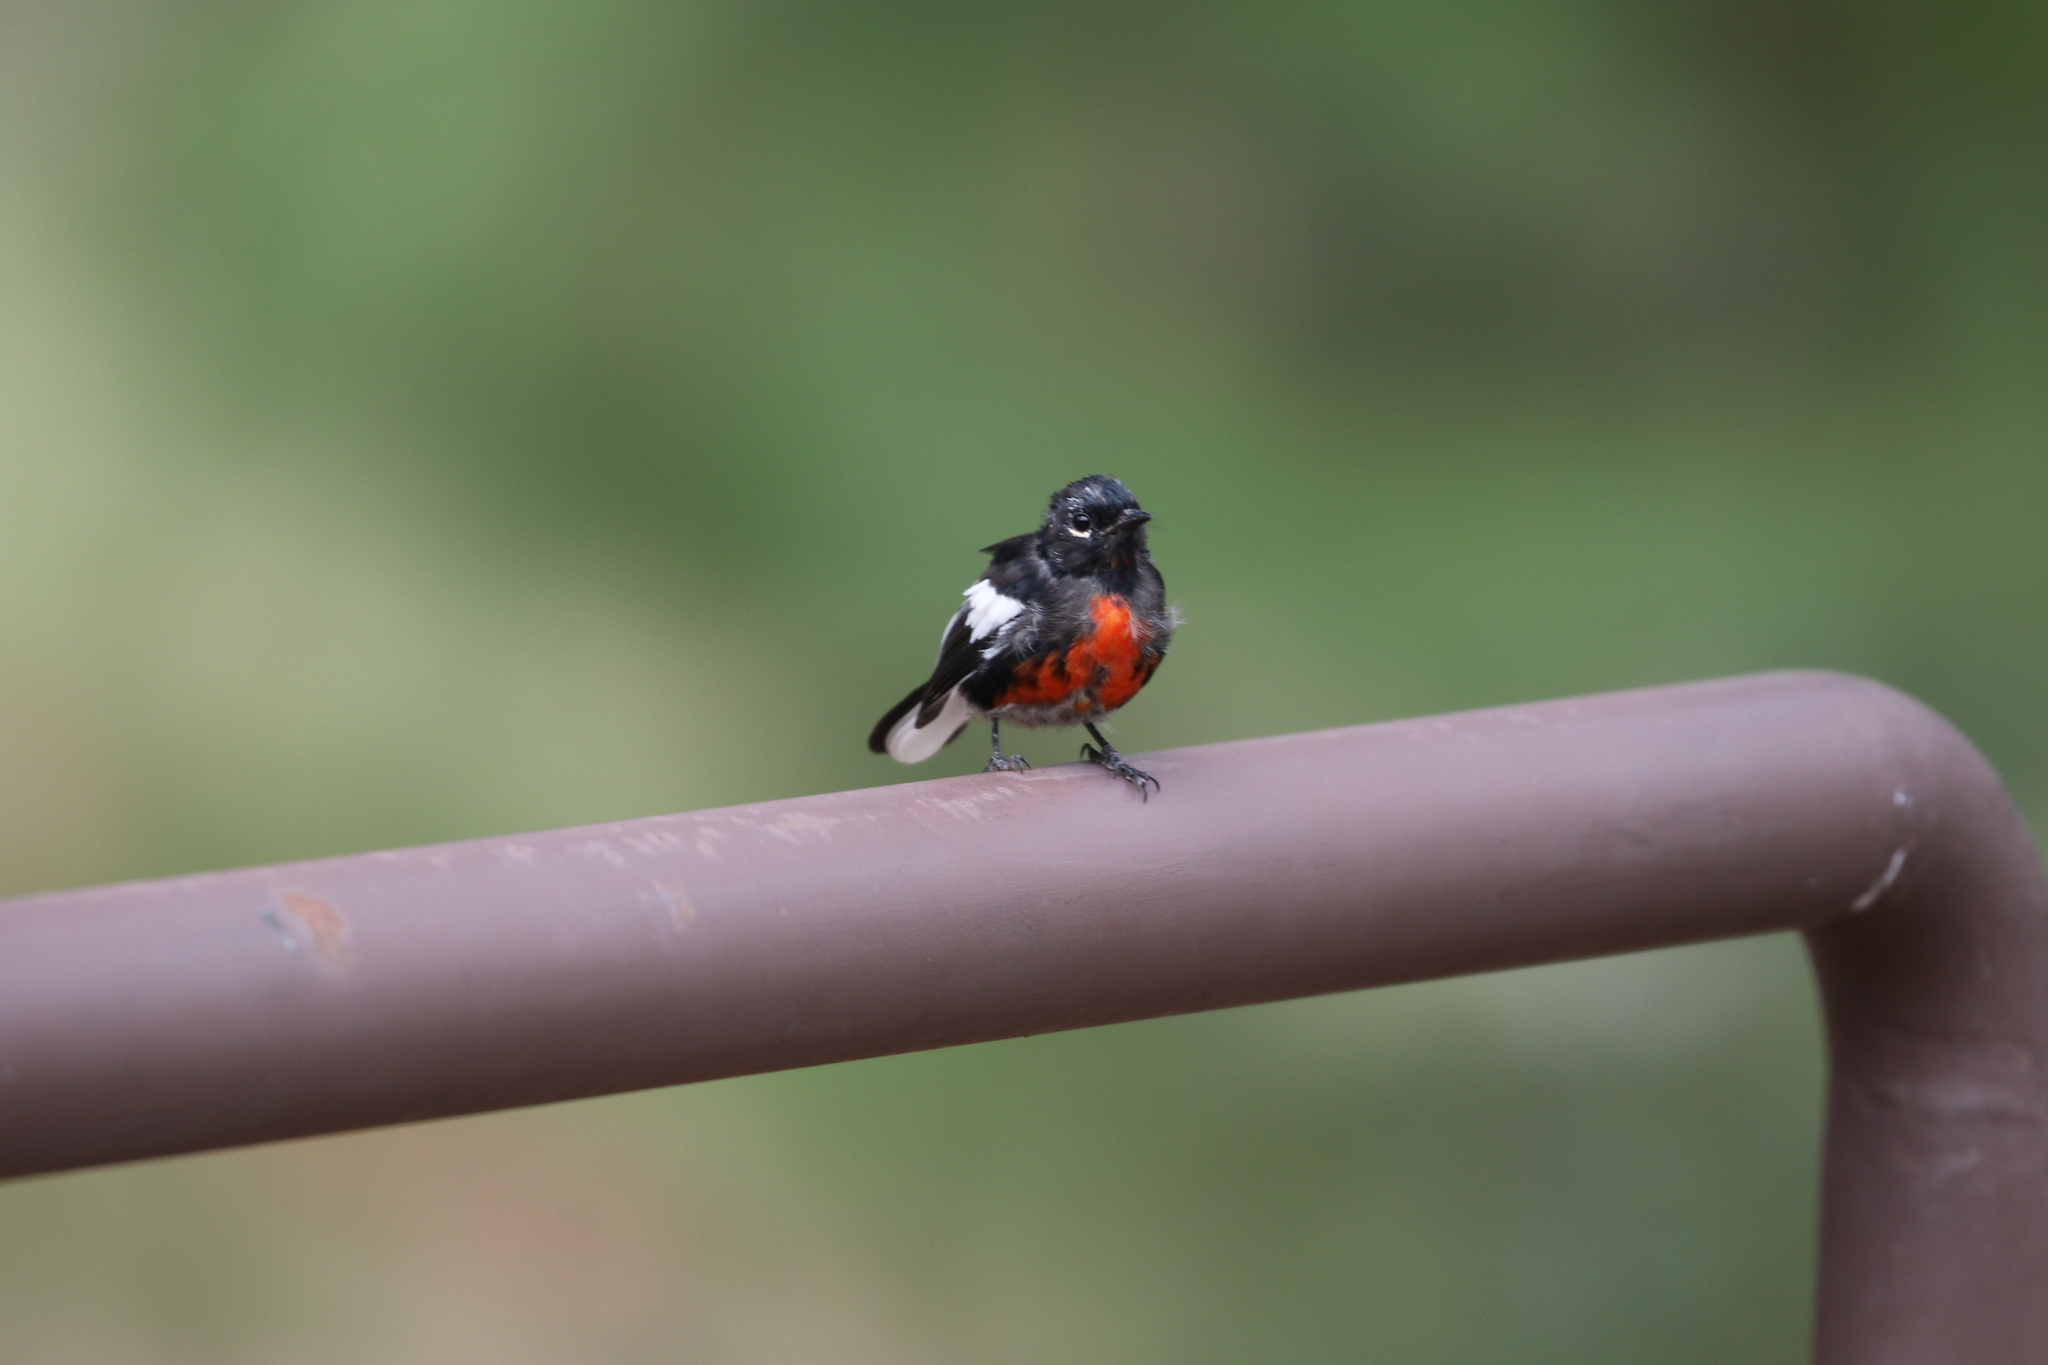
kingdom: Animalia
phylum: Chordata
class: Aves
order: Passeriformes
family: Parulidae
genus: Myioborus
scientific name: Myioborus pictus
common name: Painted whitestart
